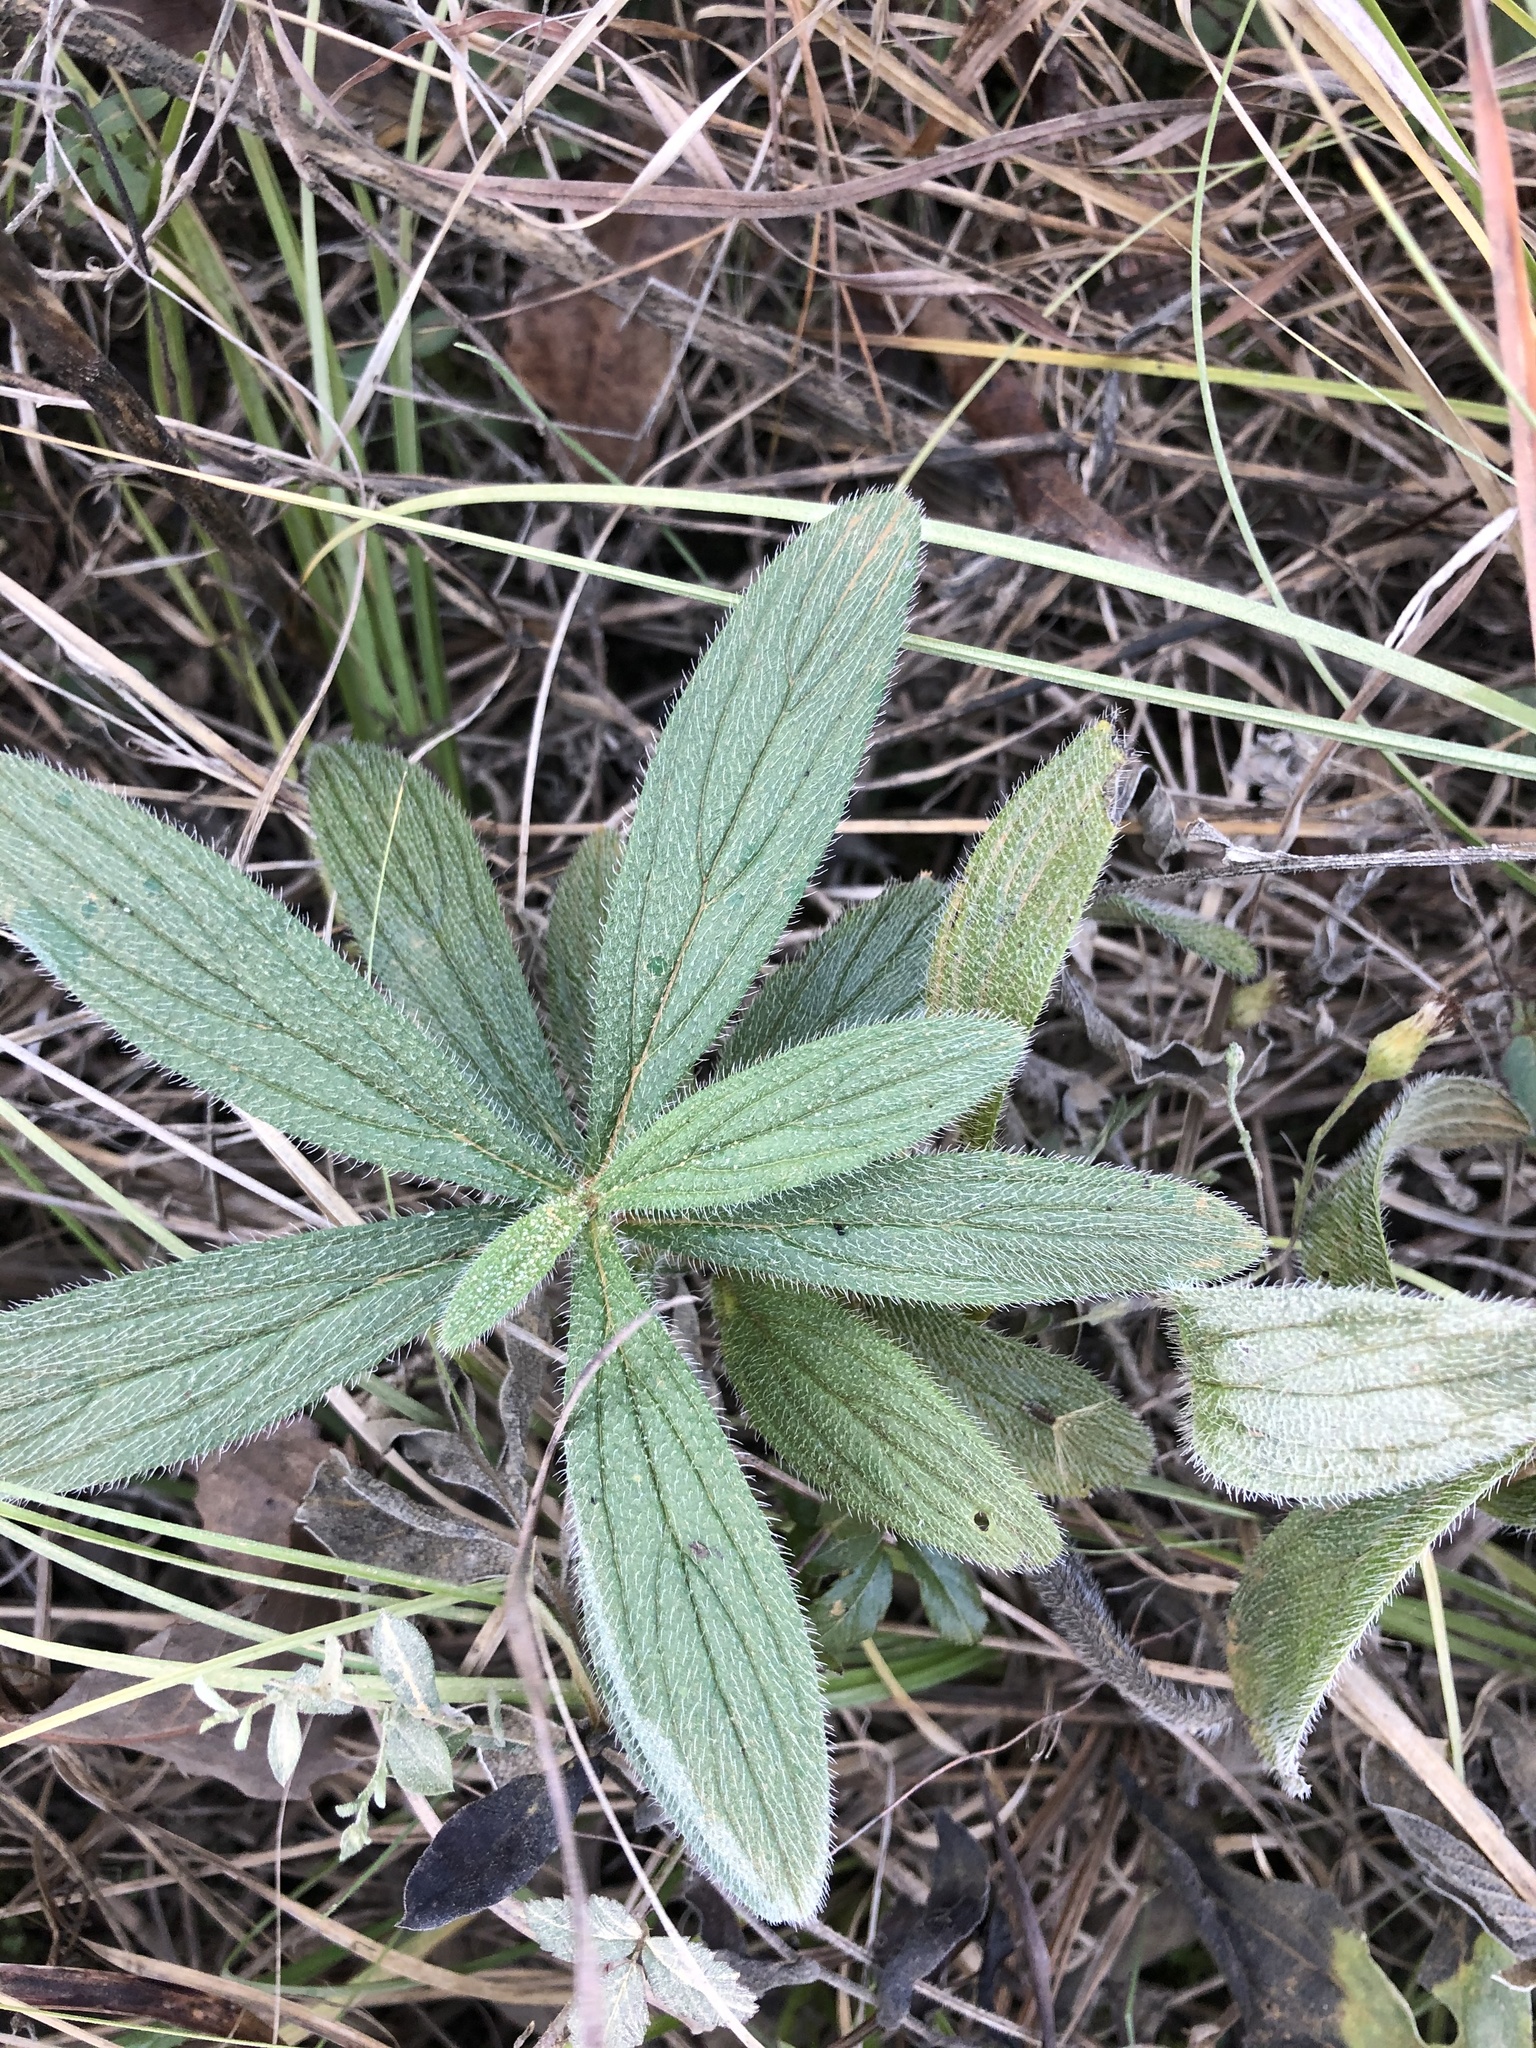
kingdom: Plantae
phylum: Tracheophyta
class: Magnoliopsida
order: Boraginales
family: Boraginaceae
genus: Lithospermum
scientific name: Lithospermum caroliniense
